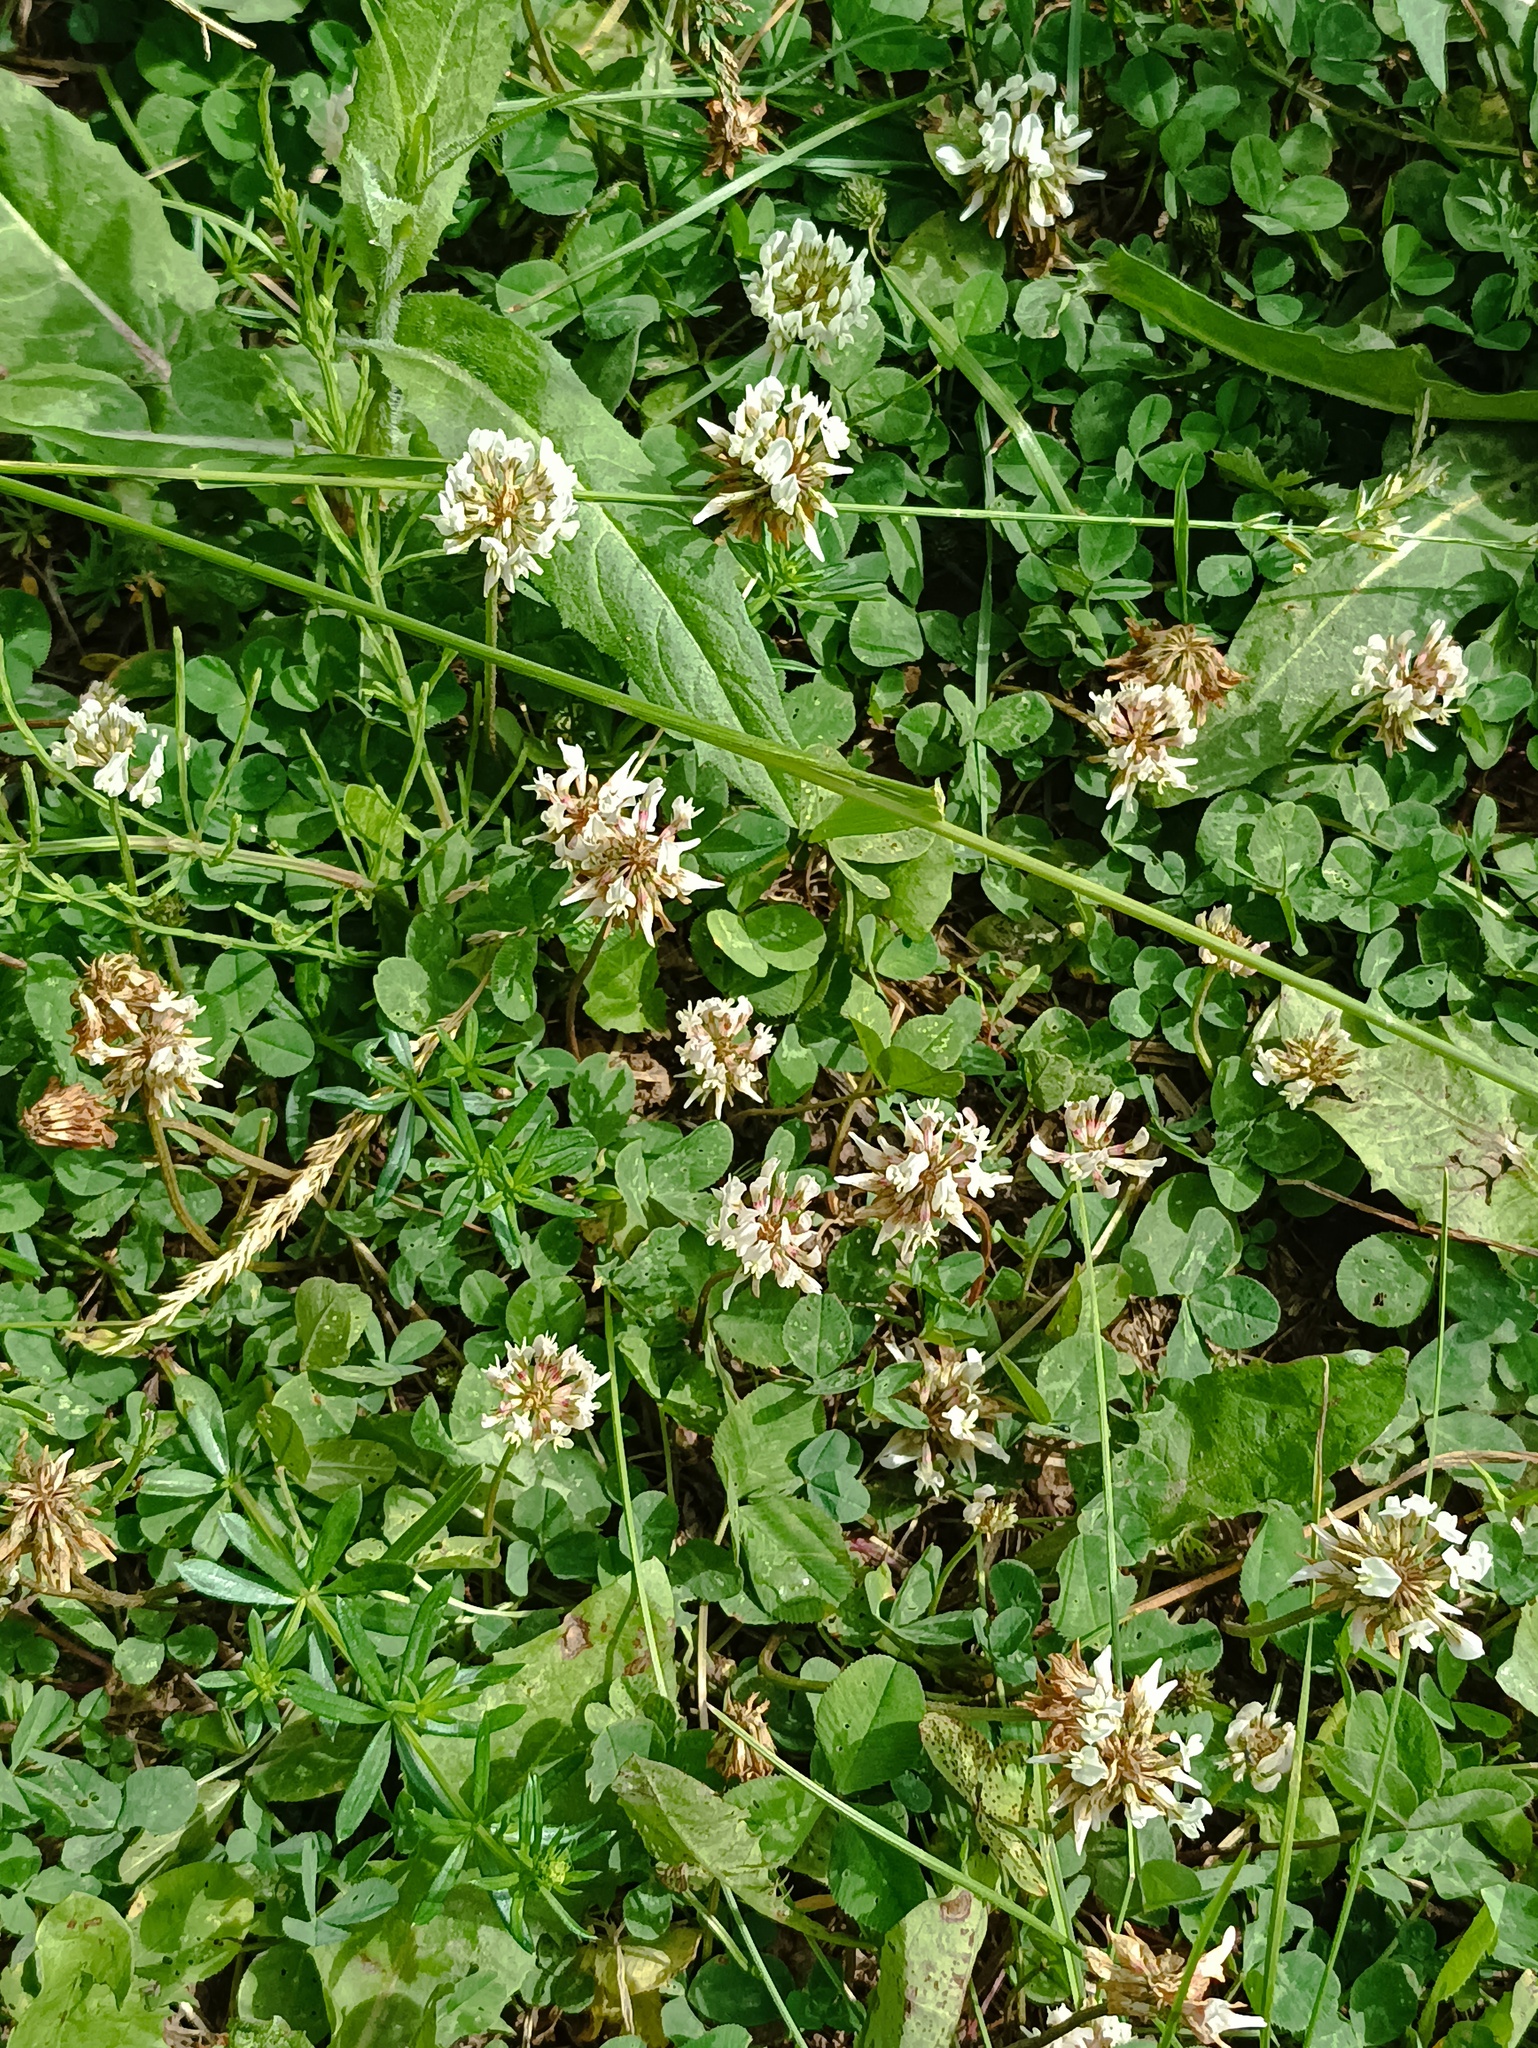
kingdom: Plantae
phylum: Tracheophyta
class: Magnoliopsida
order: Fabales
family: Fabaceae
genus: Trifolium
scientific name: Trifolium repens
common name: White clover
